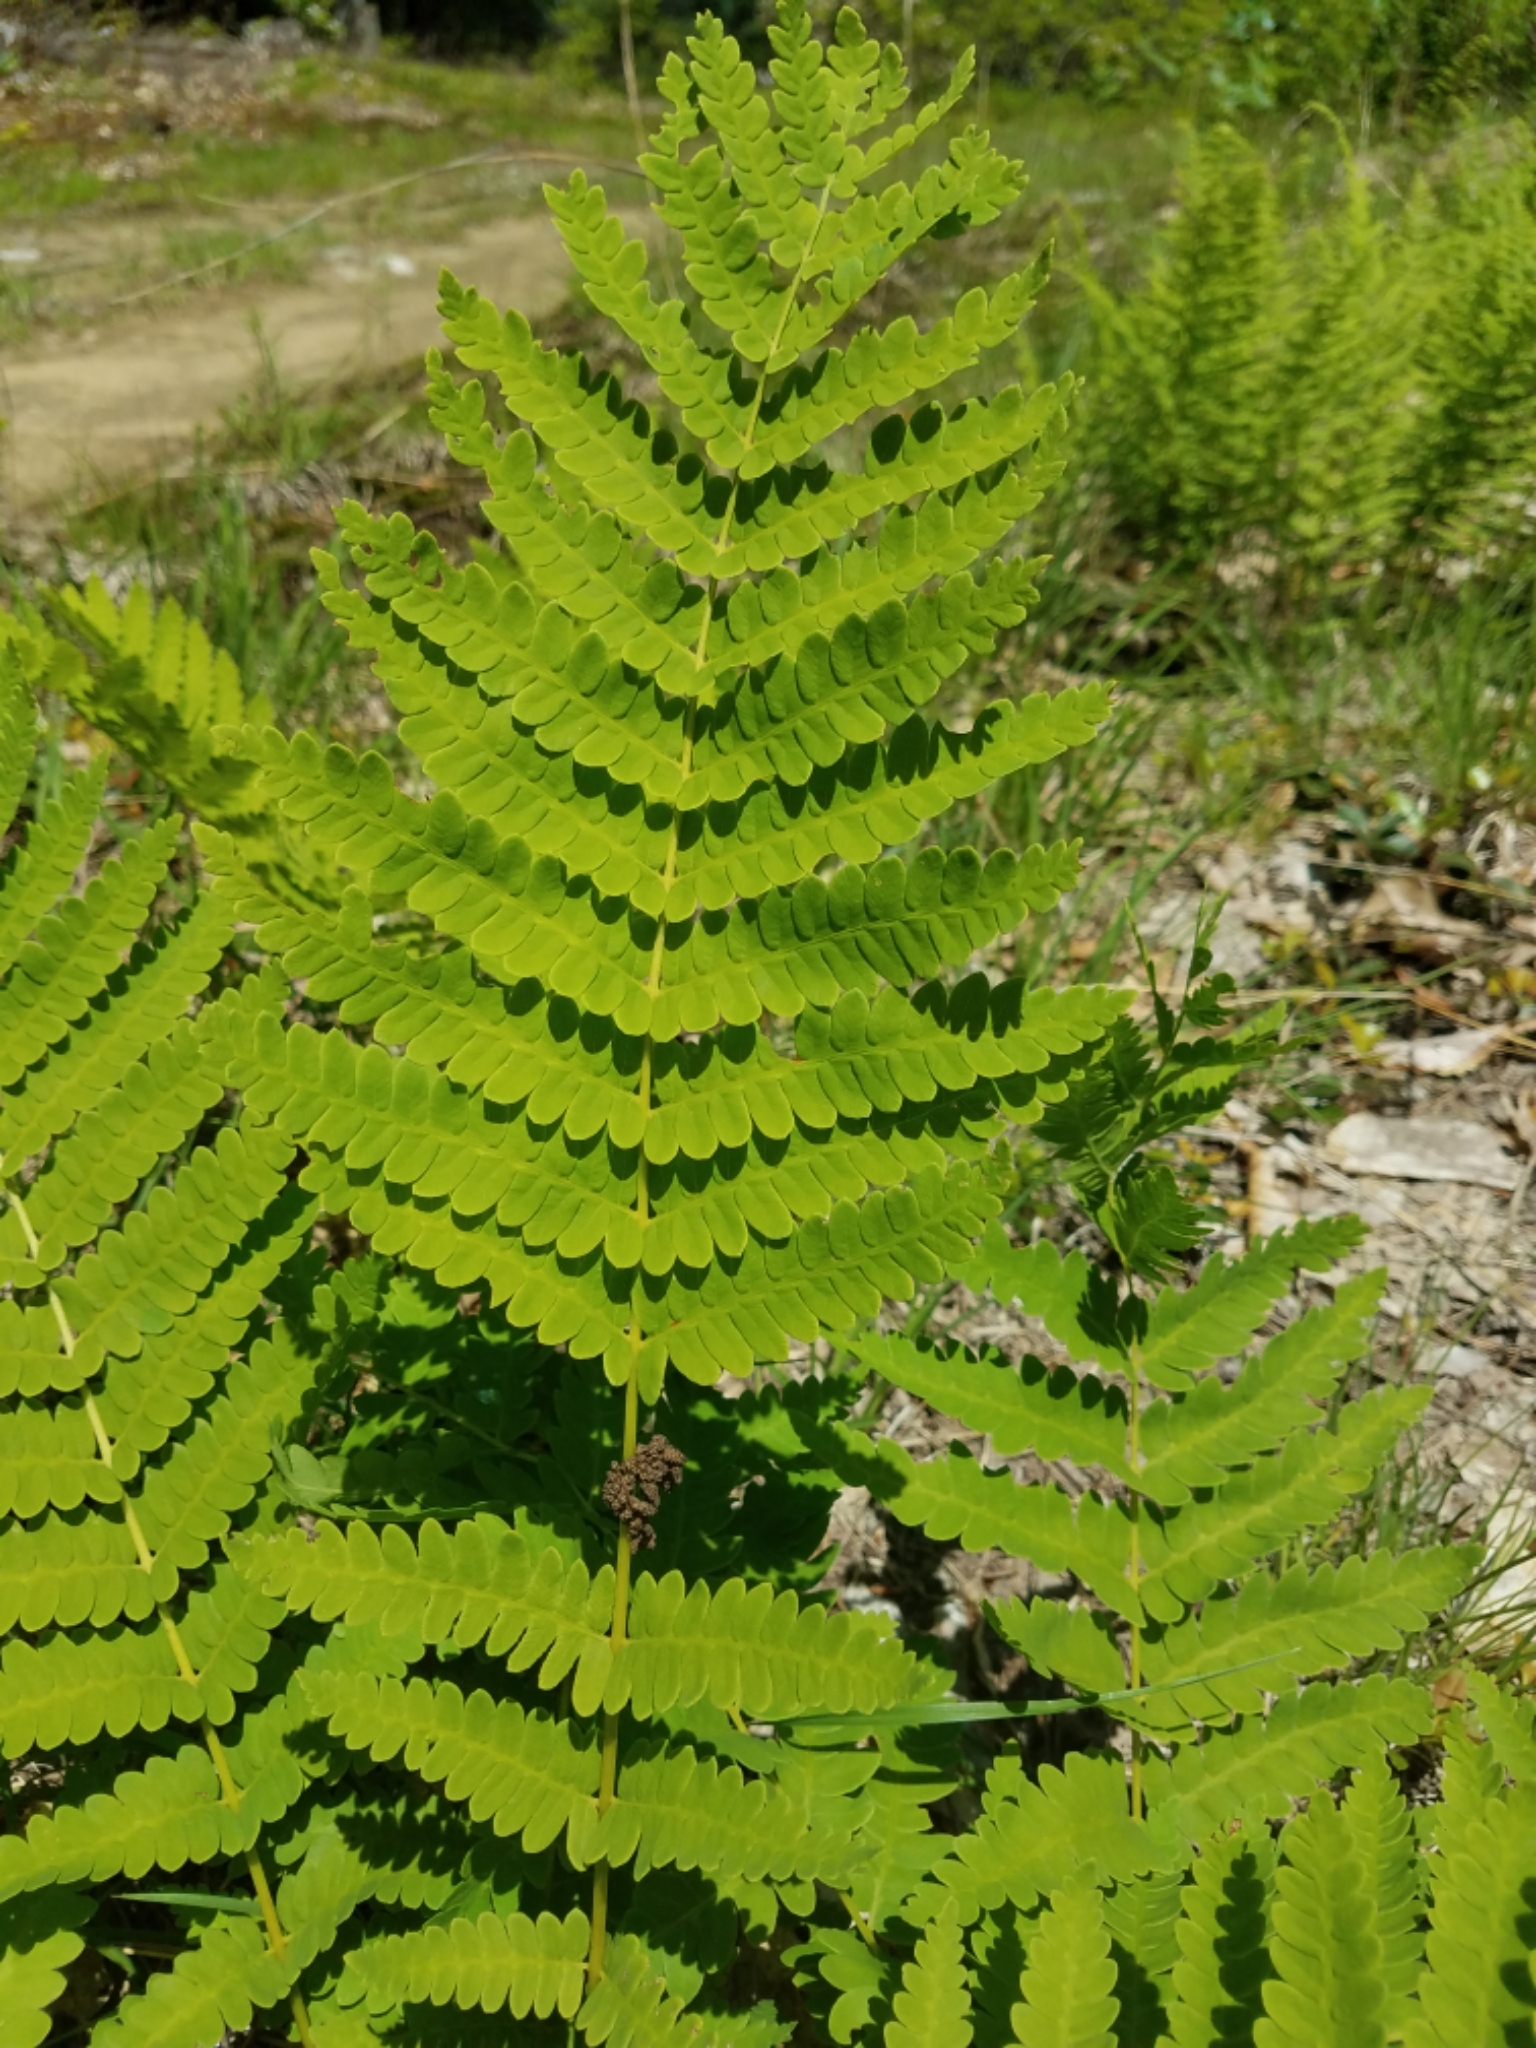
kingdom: Plantae
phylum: Tracheophyta
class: Polypodiopsida
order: Osmundales
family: Osmundaceae
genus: Claytosmunda
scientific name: Claytosmunda claytoniana
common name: Clayton's fern
